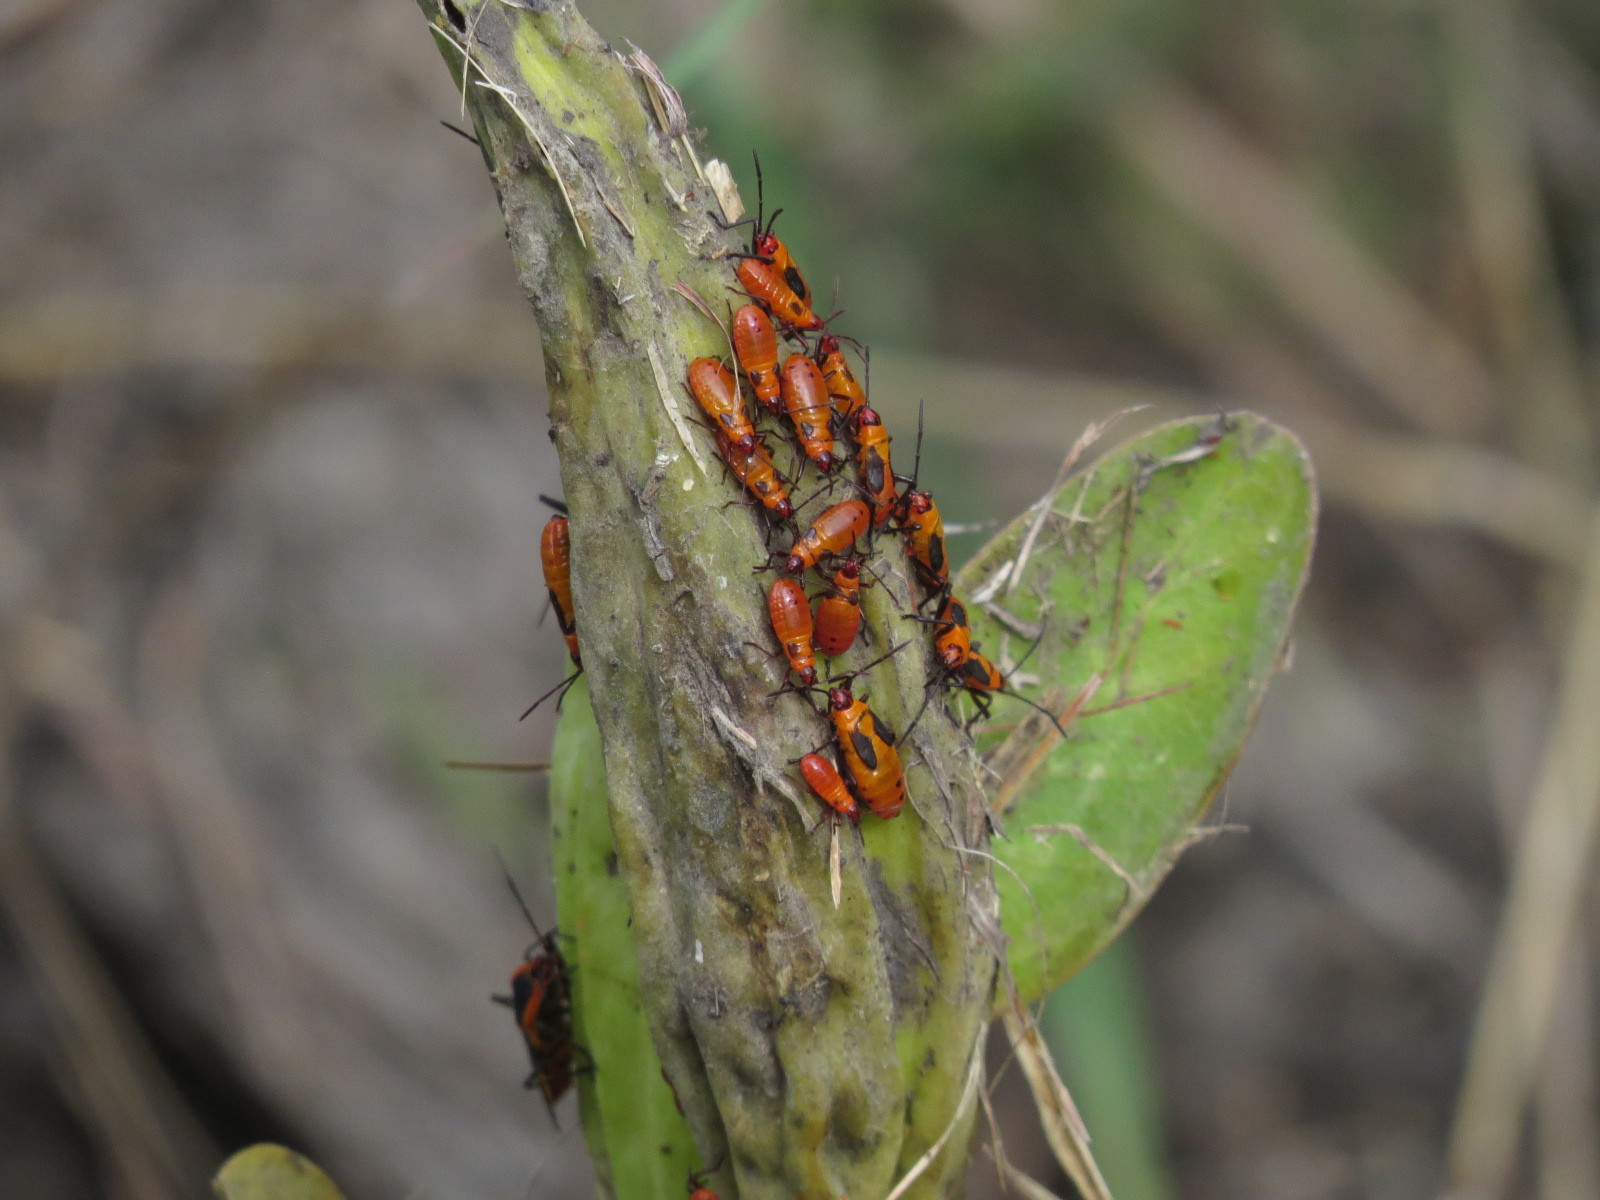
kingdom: Animalia
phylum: Arthropoda
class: Insecta
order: Hemiptera
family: Lygaeidae
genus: Oncopeltus
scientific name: Oncopeltus fasciatus
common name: Large milkweed bug
